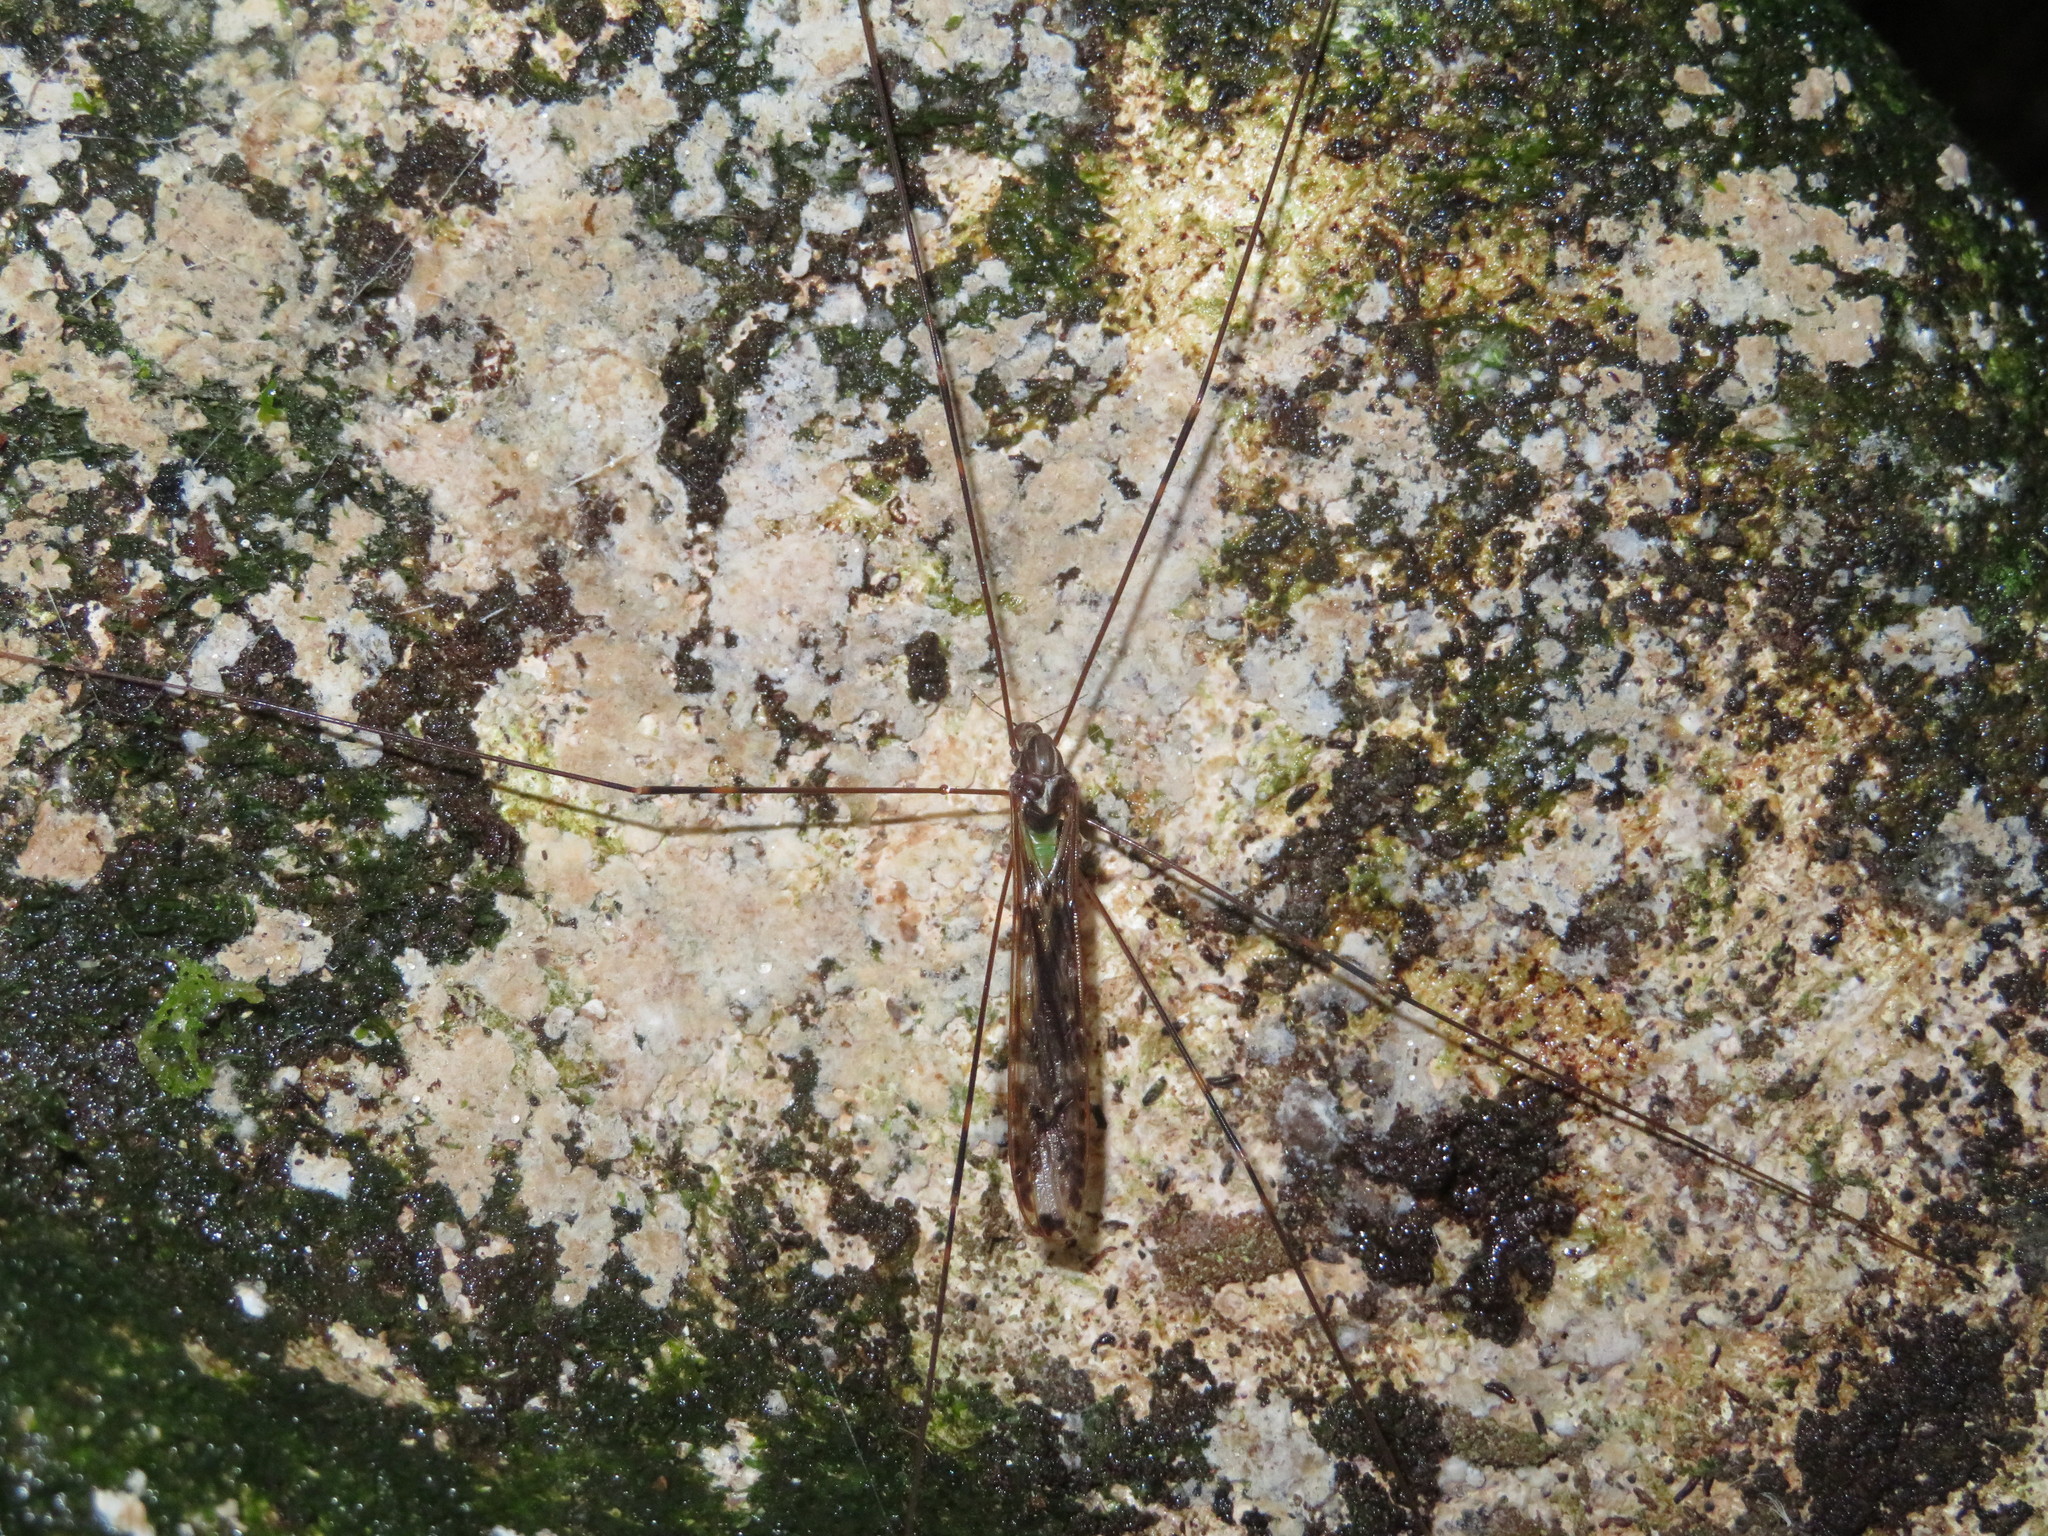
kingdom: Animalia
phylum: Arthropoda
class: Insecta
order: Diptera
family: Limoniidae
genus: Discobola
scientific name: Discobola dohrni
